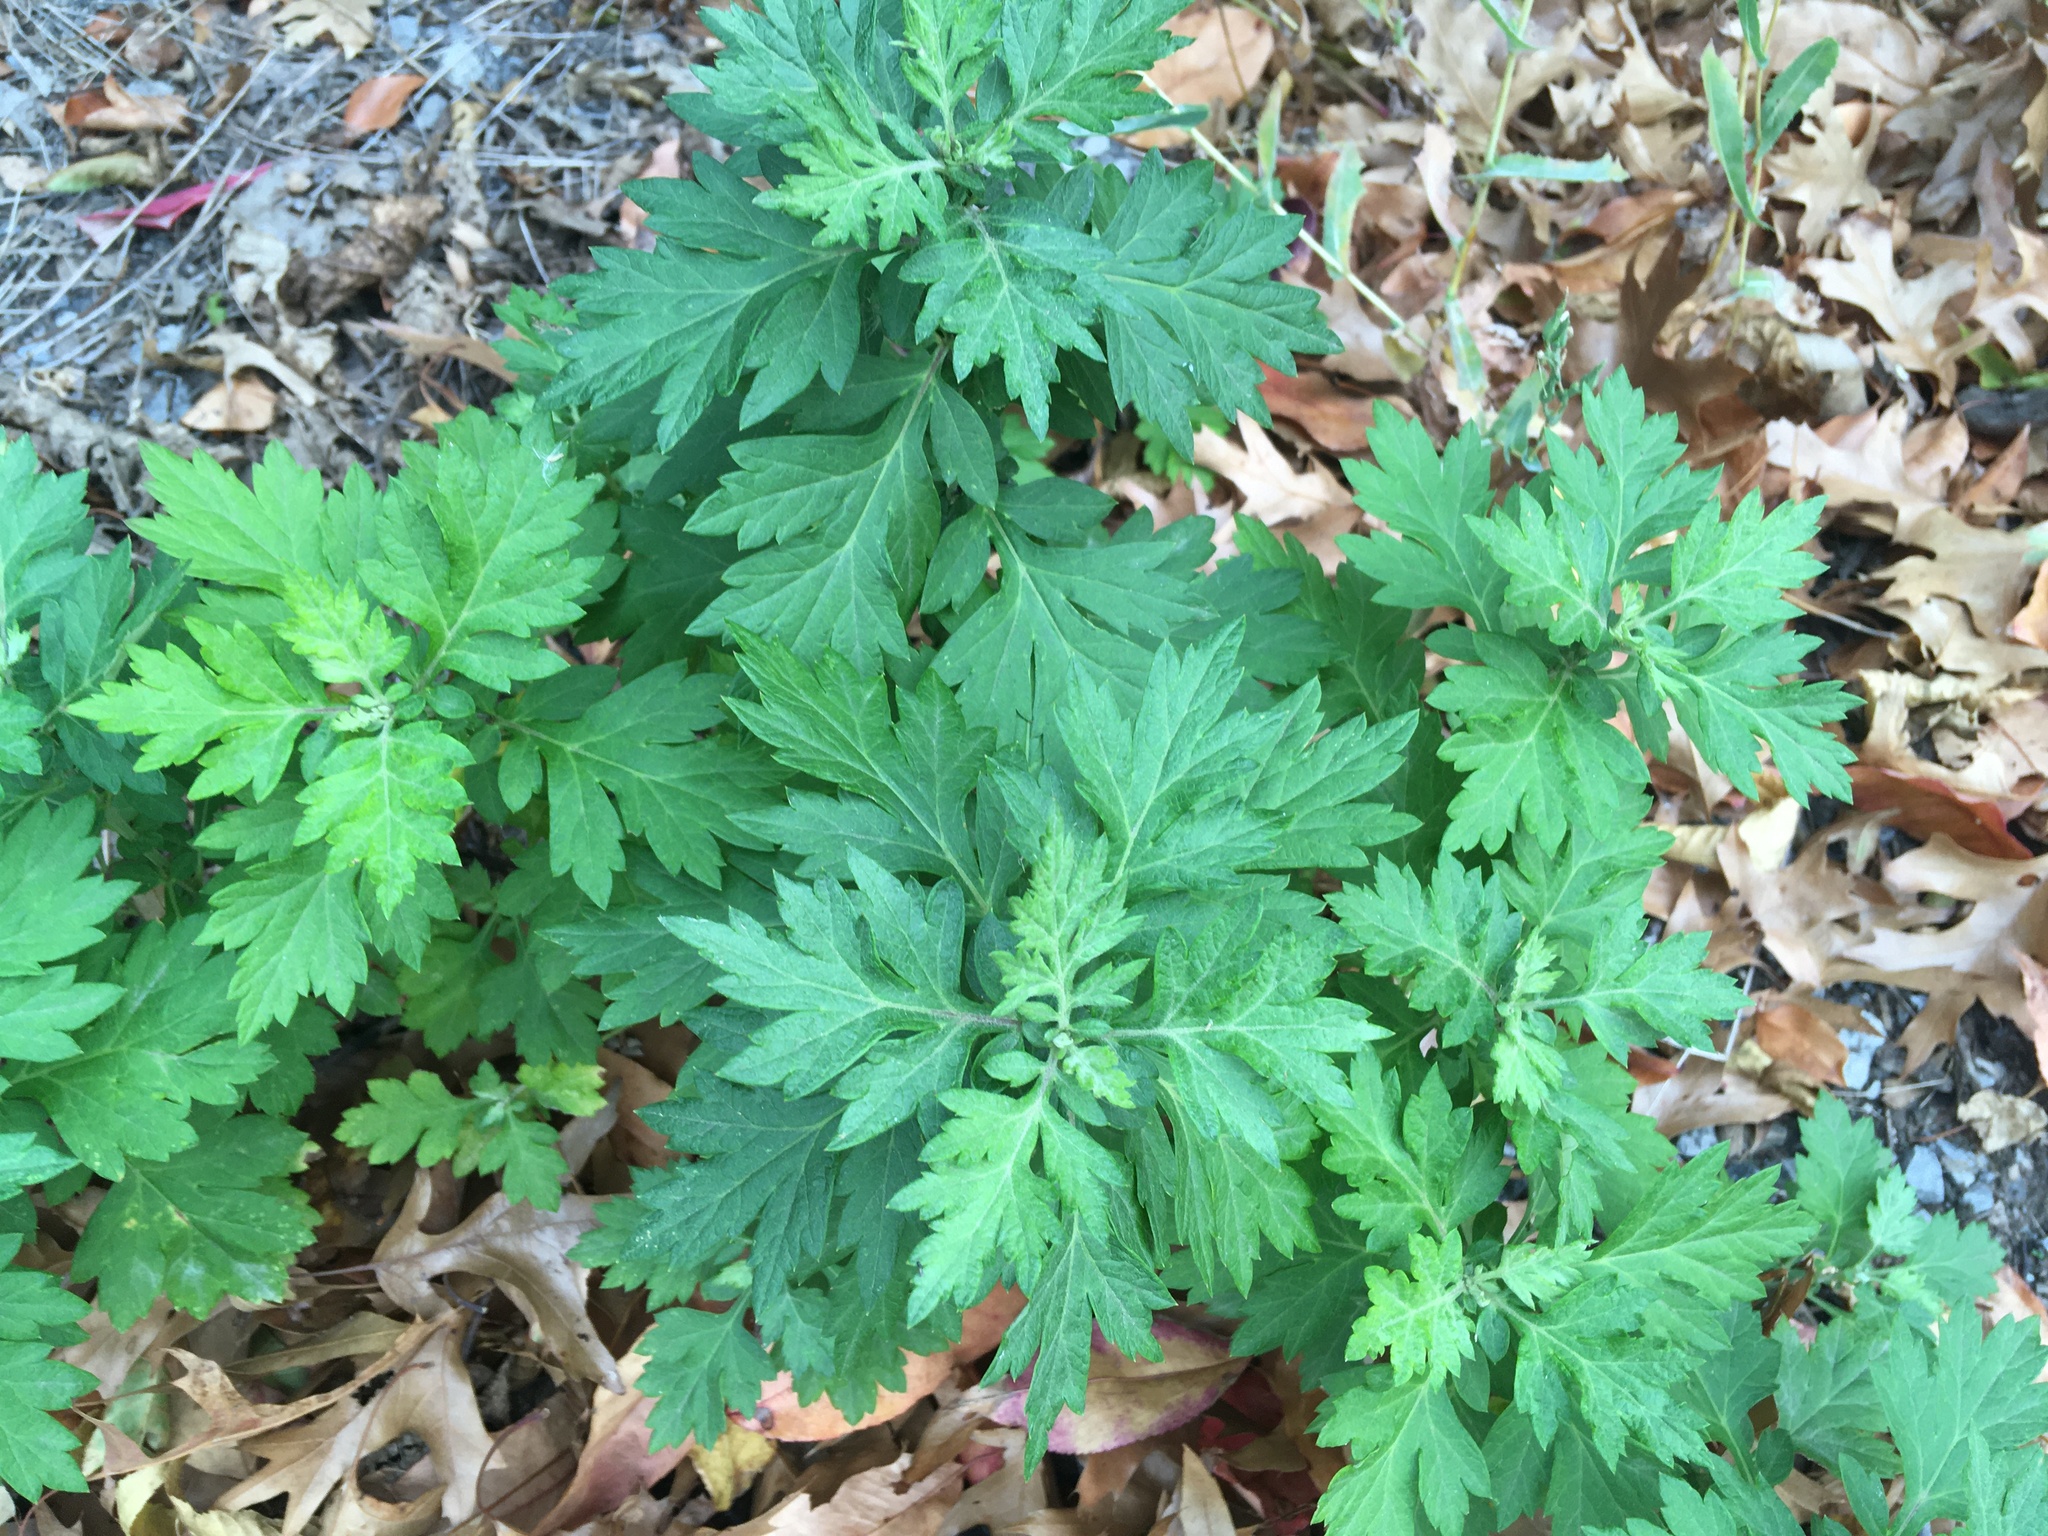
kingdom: Plantae
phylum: Tracheophyta
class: Magnoliopsida
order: Asterales
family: Asteraceae
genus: Artemisia
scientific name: Artemisia vulgaris
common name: Mugwort
